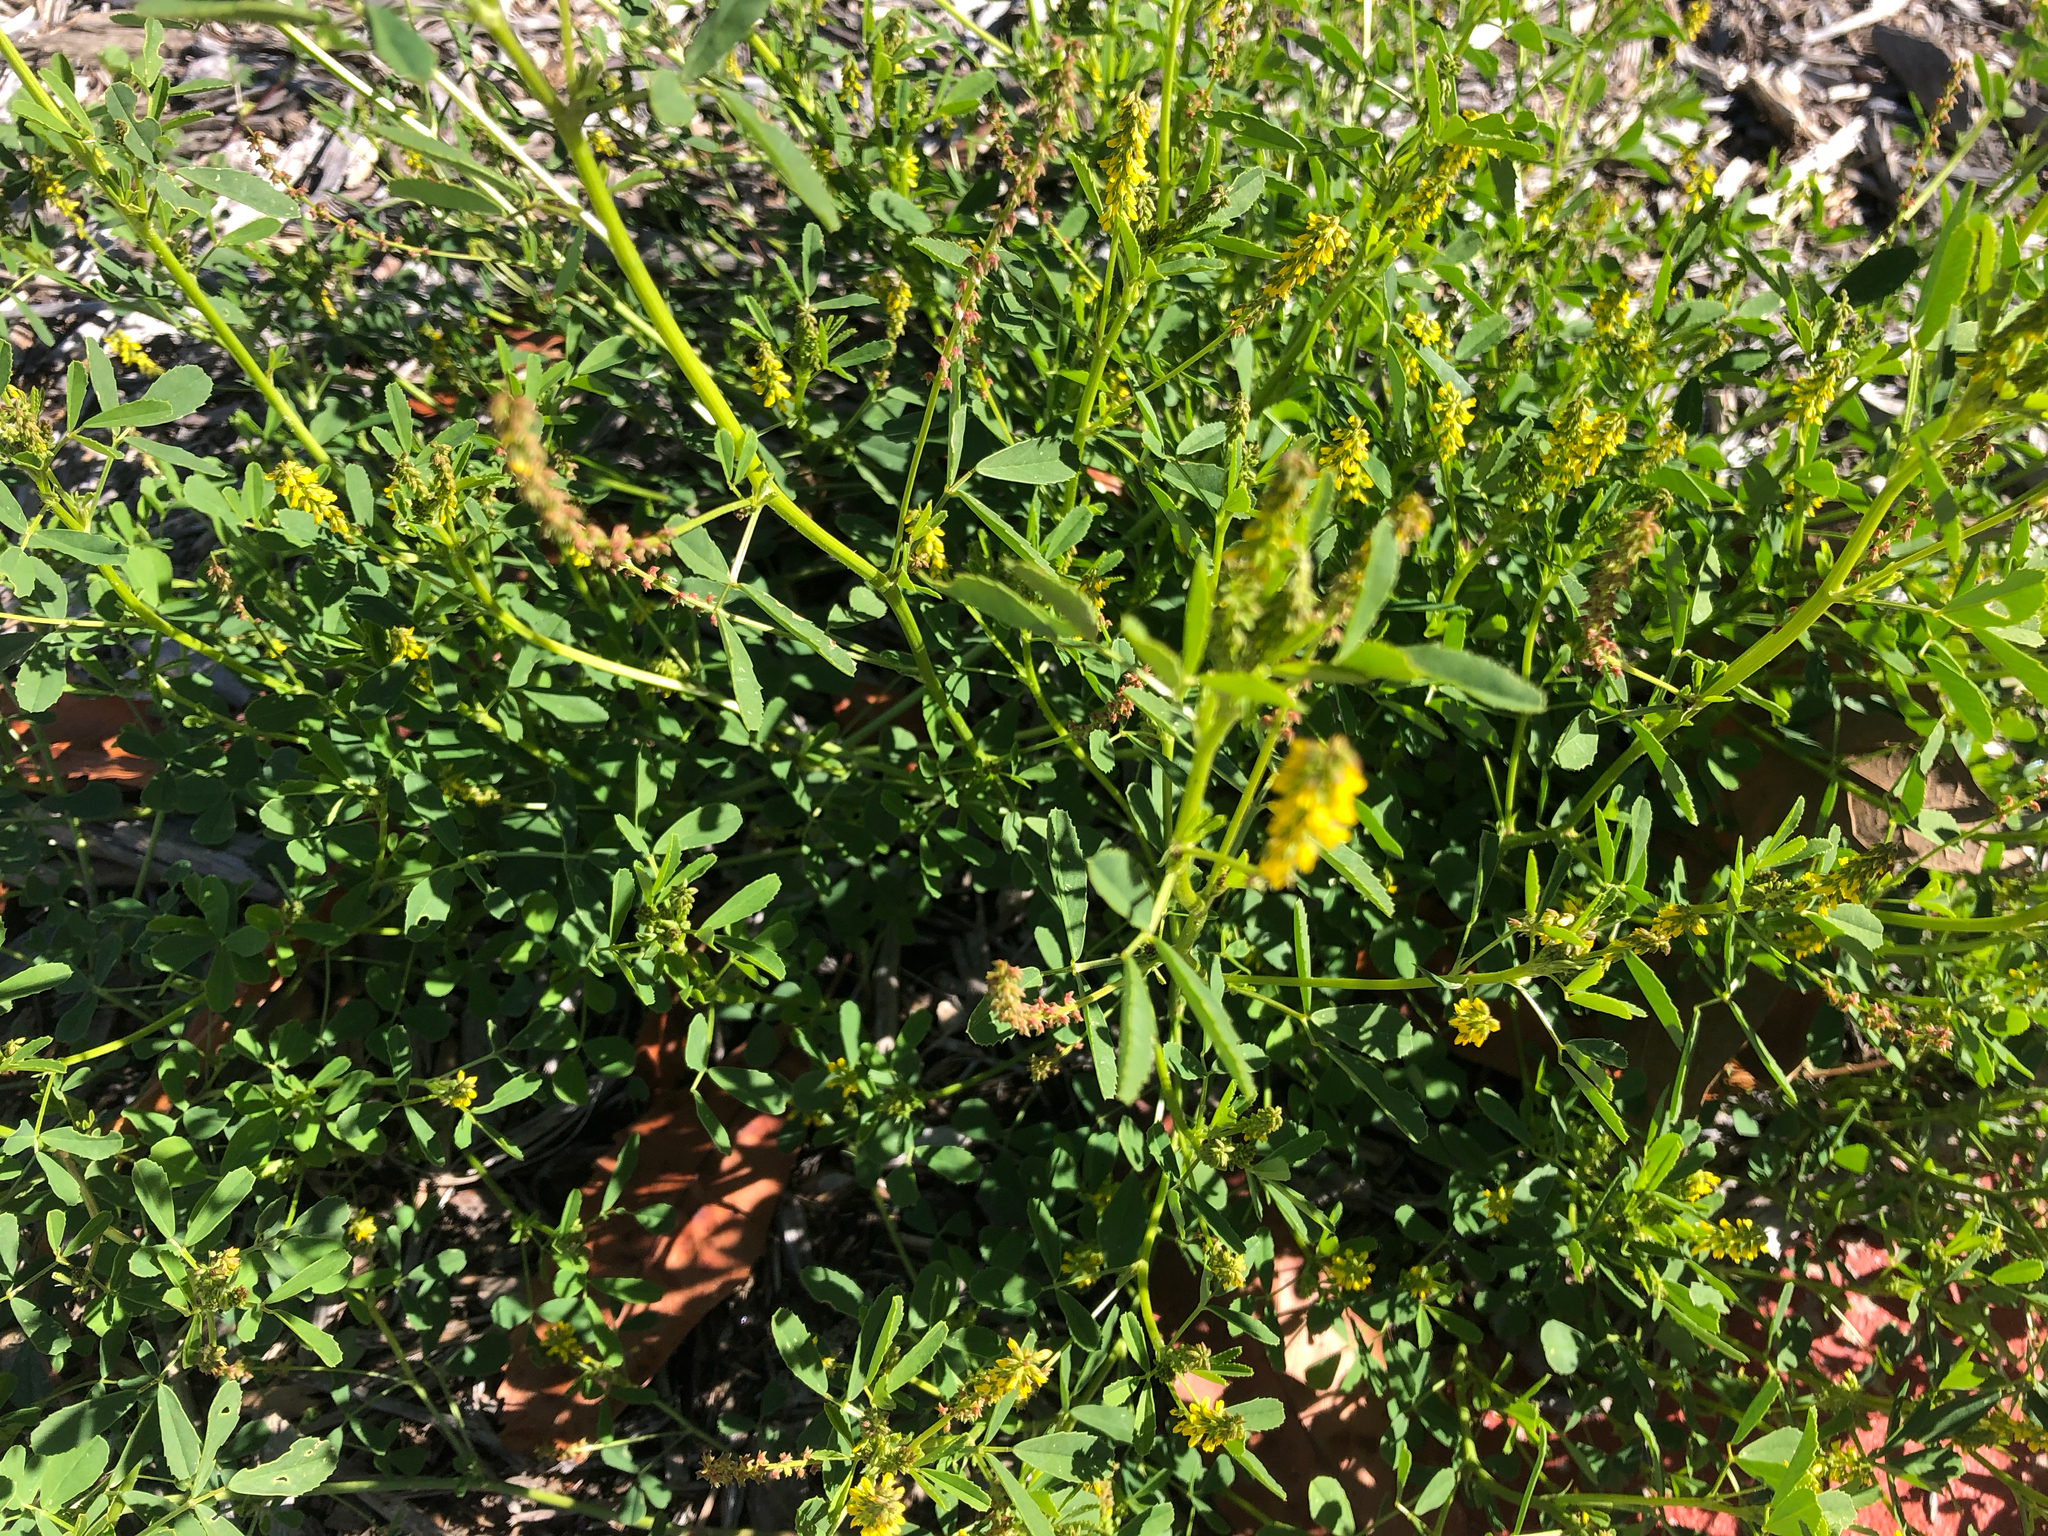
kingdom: Plantae
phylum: Tracheophyta
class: Magnoliopsida
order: Fabales
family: Fabaceae
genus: Melilotus
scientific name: Melilotus indicus
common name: Small melilot
